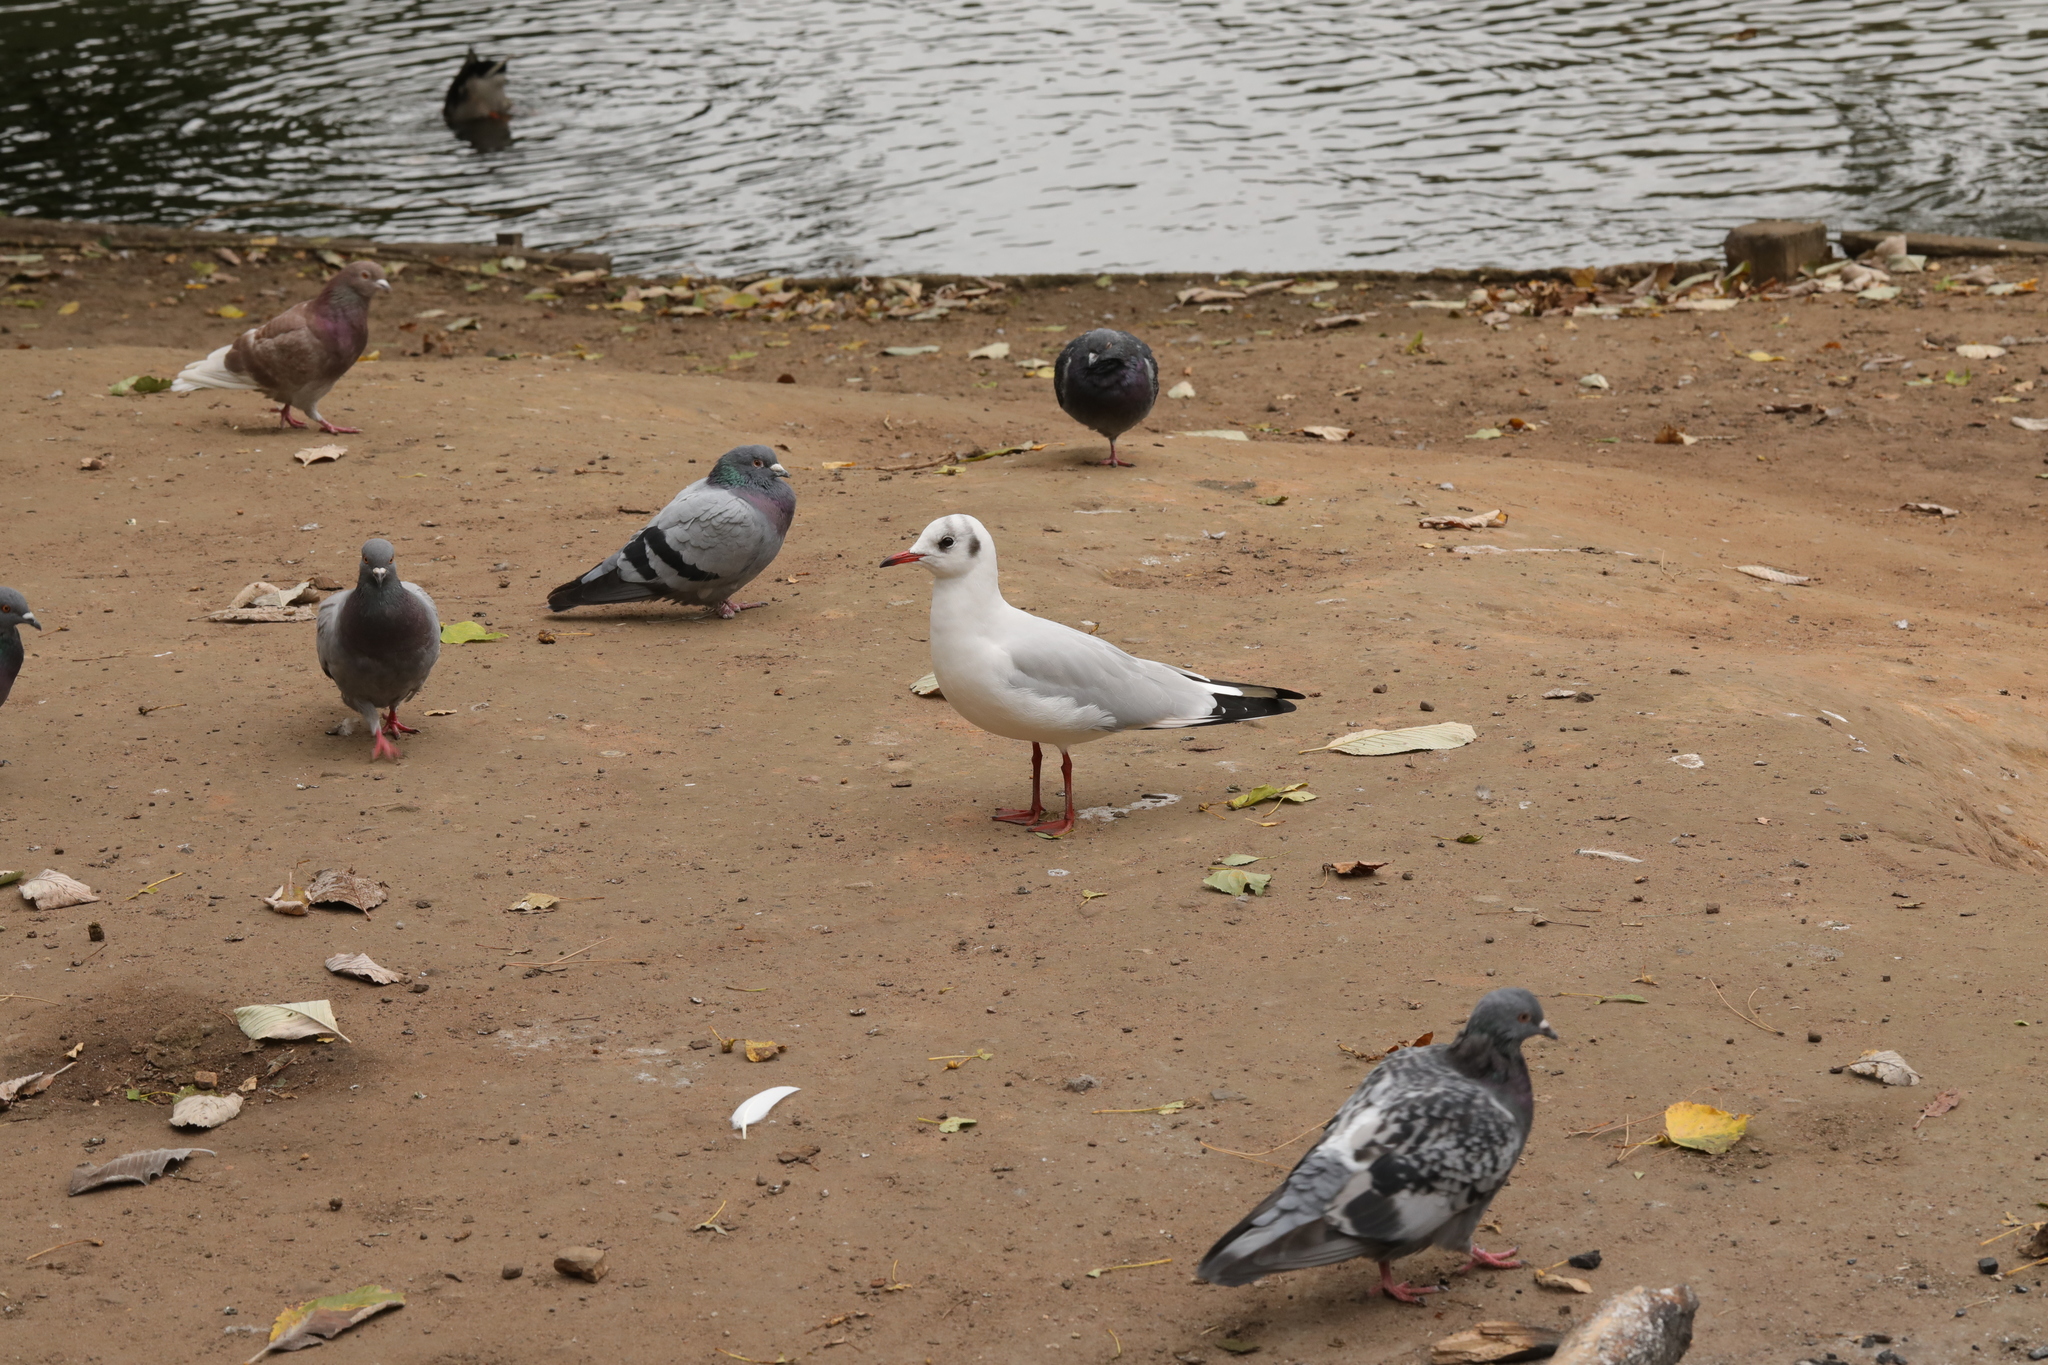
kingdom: Animalia
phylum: Chordata
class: Aves
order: Charadriiformes
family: Laridae
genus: Chroicocephalus
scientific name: Chroicocephalus ridibundus
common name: Black-headed gull
